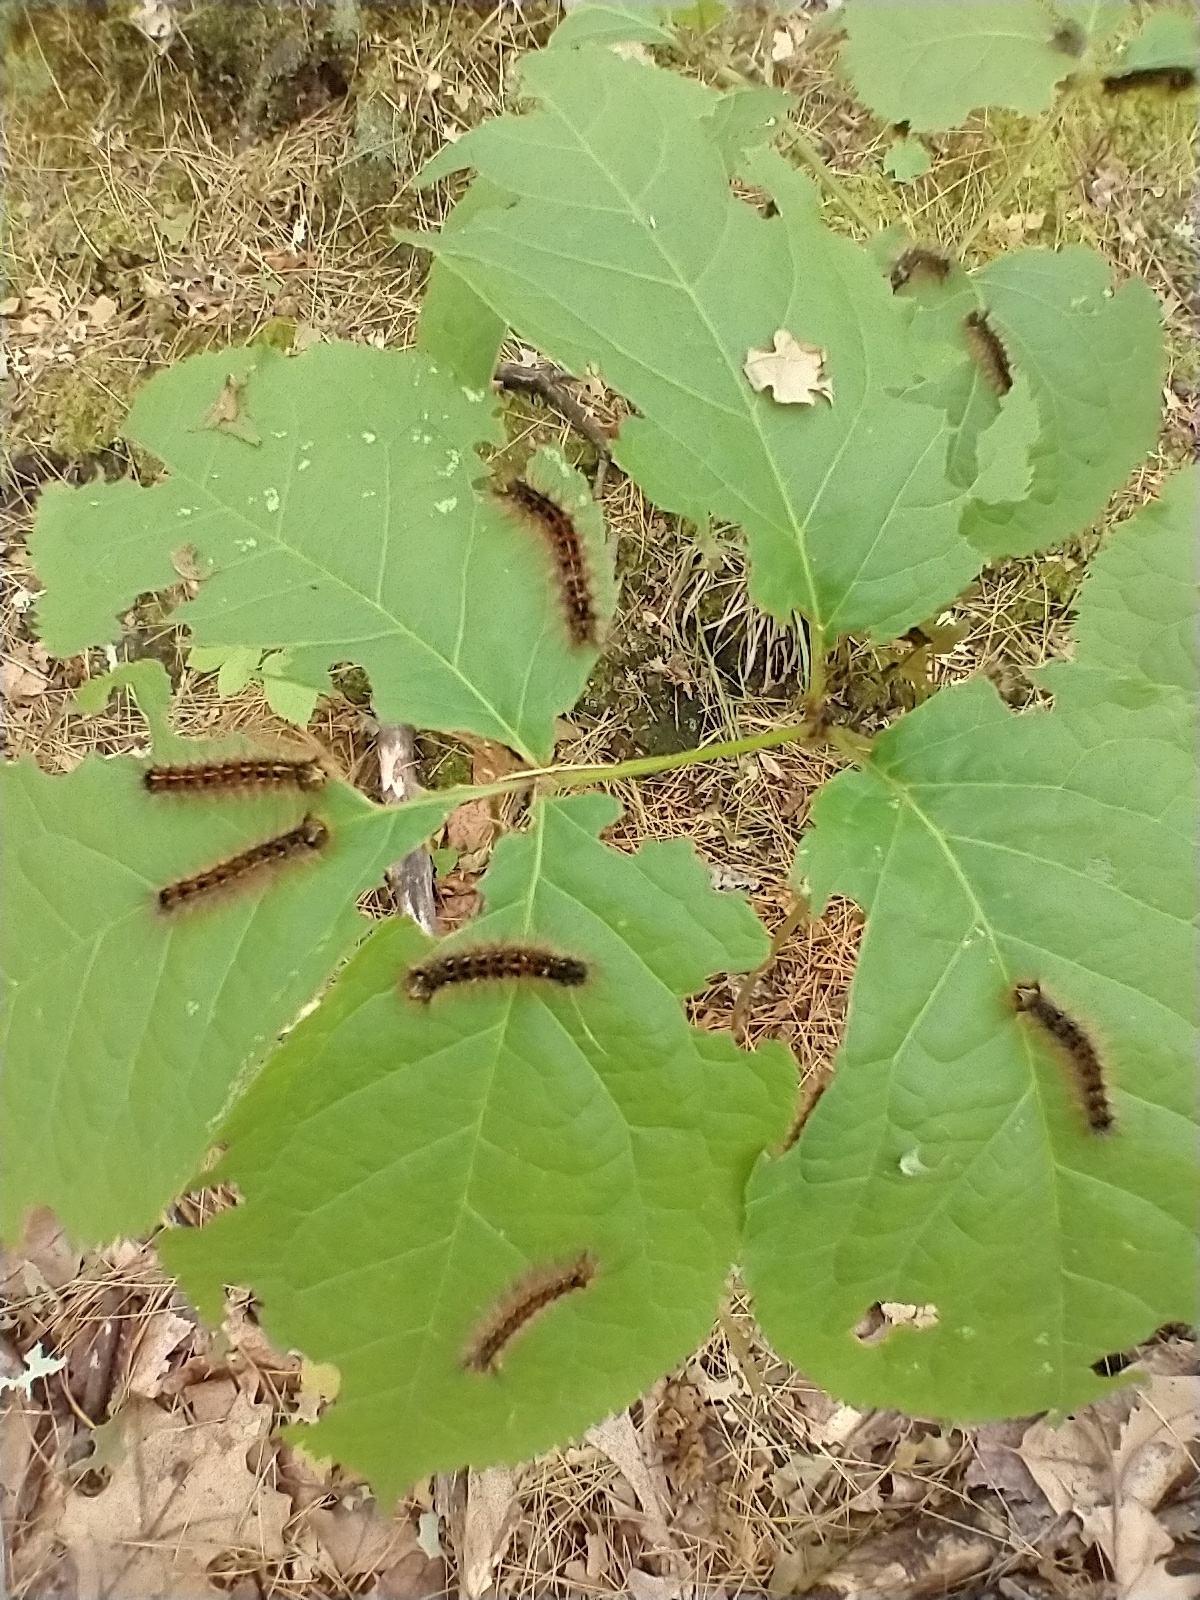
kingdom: Plantae
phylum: Tracheophyta
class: Magnoliopsida
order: Apiales
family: Araliaceae
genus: Aralia
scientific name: Aralia nudicaulis
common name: Wild sarsaparilla
